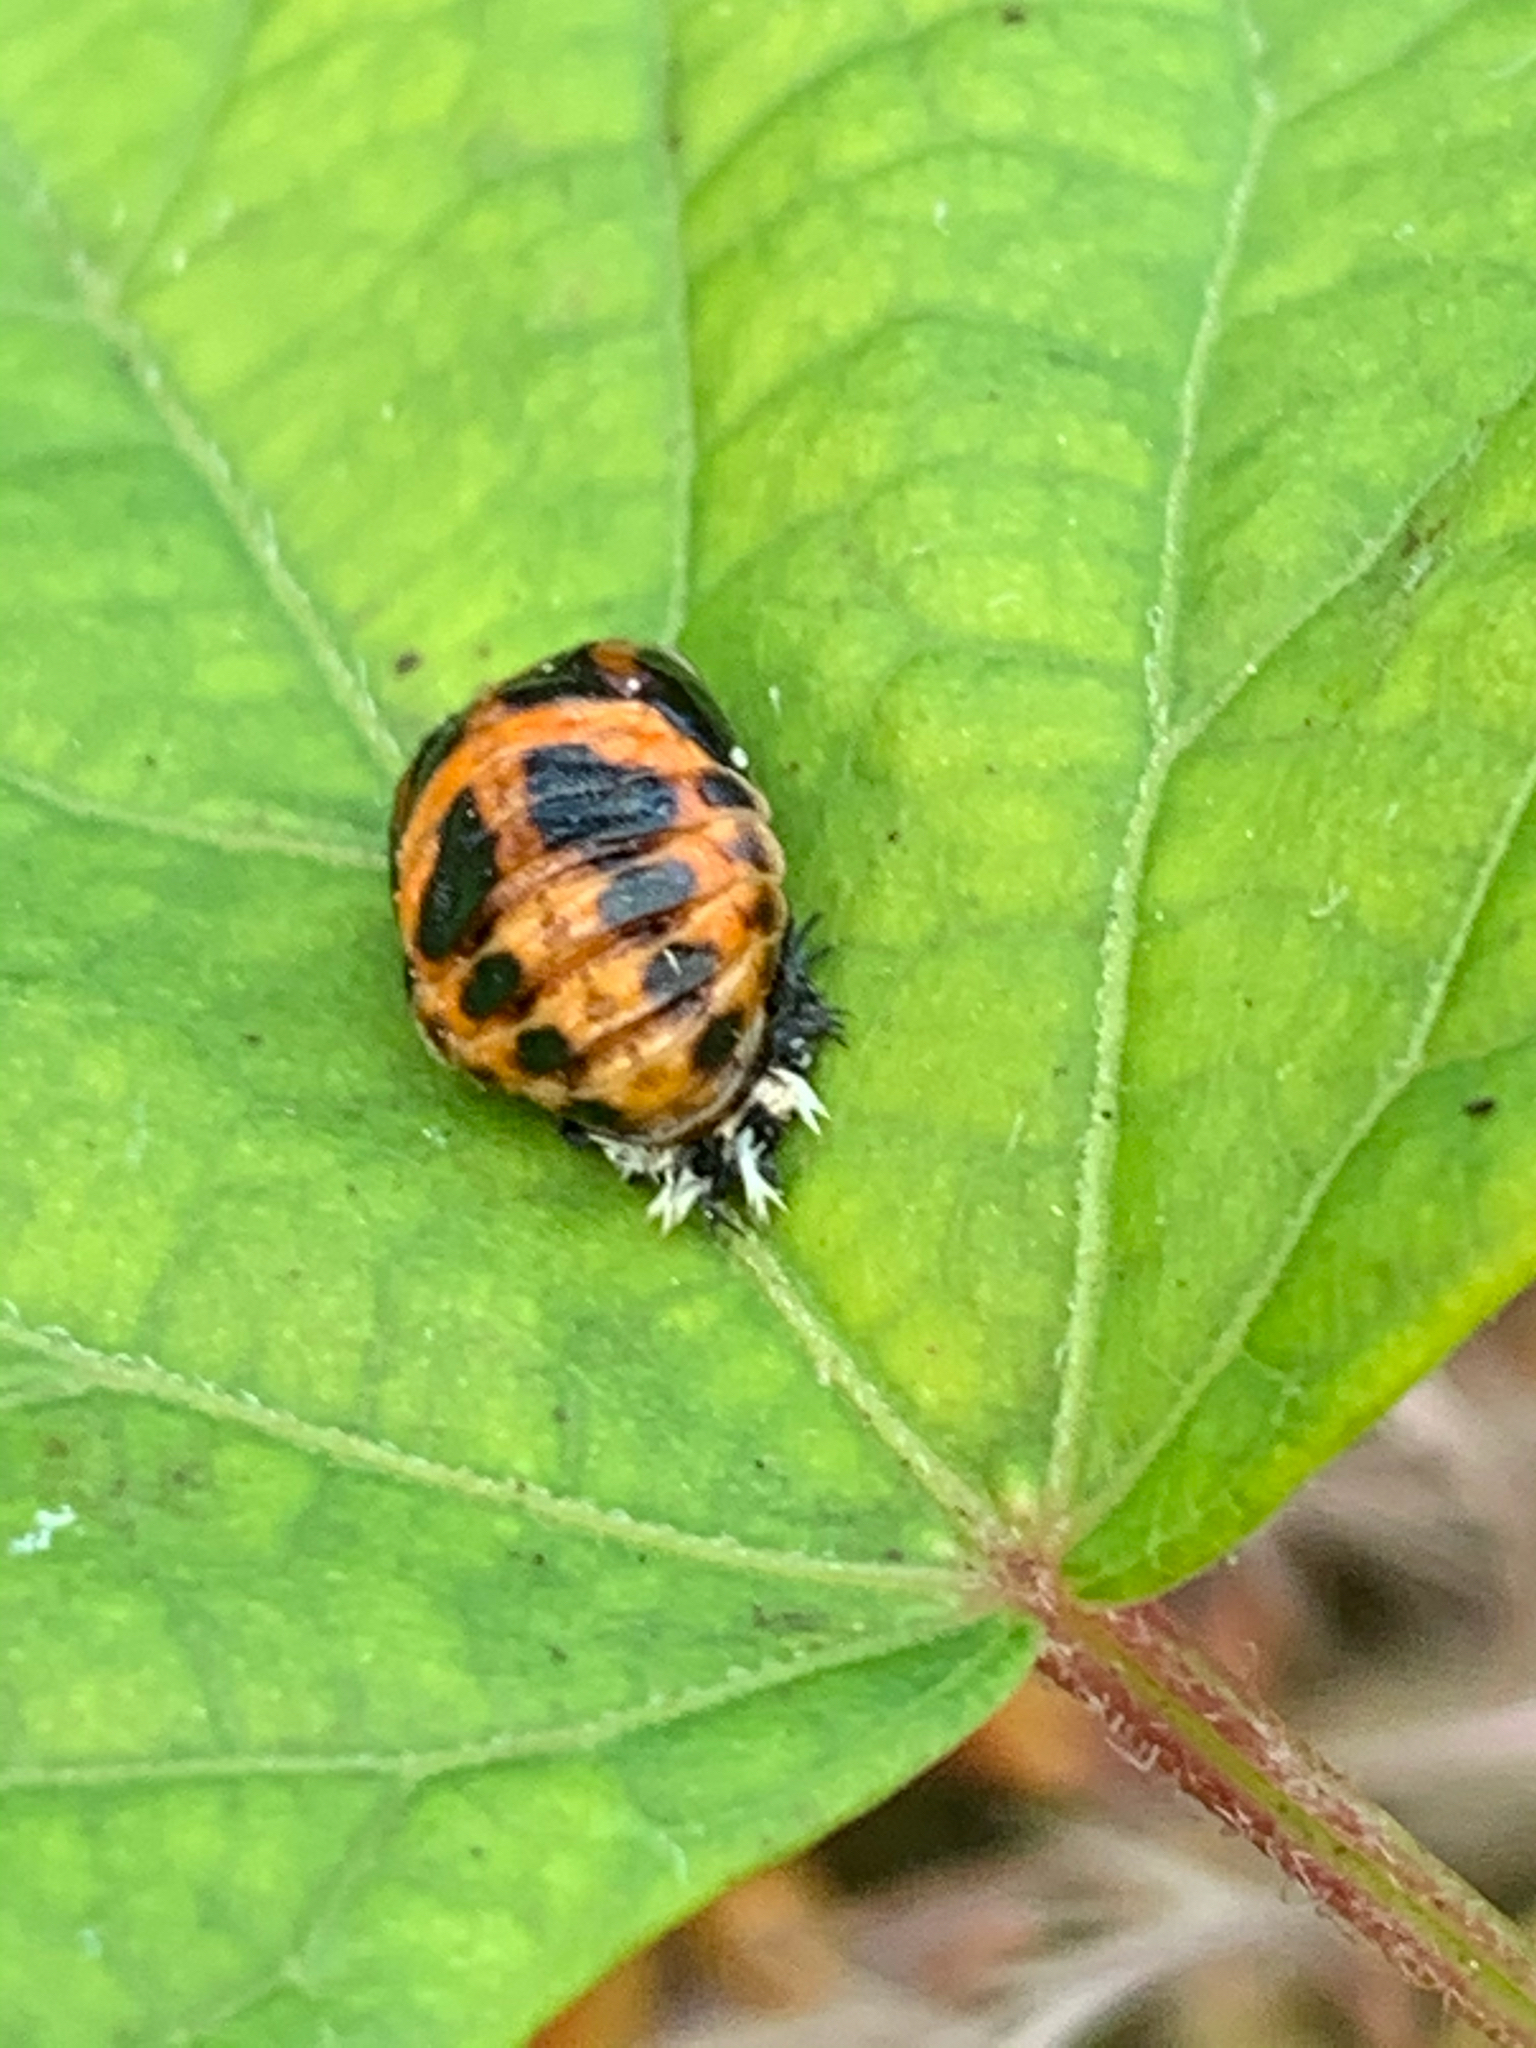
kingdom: Animalia
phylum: Arthropoda
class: Insecta
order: Coleoptera
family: Coccinellidae
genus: Harmonia
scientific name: Harmonia axyridis
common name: Harlequin ladybird
